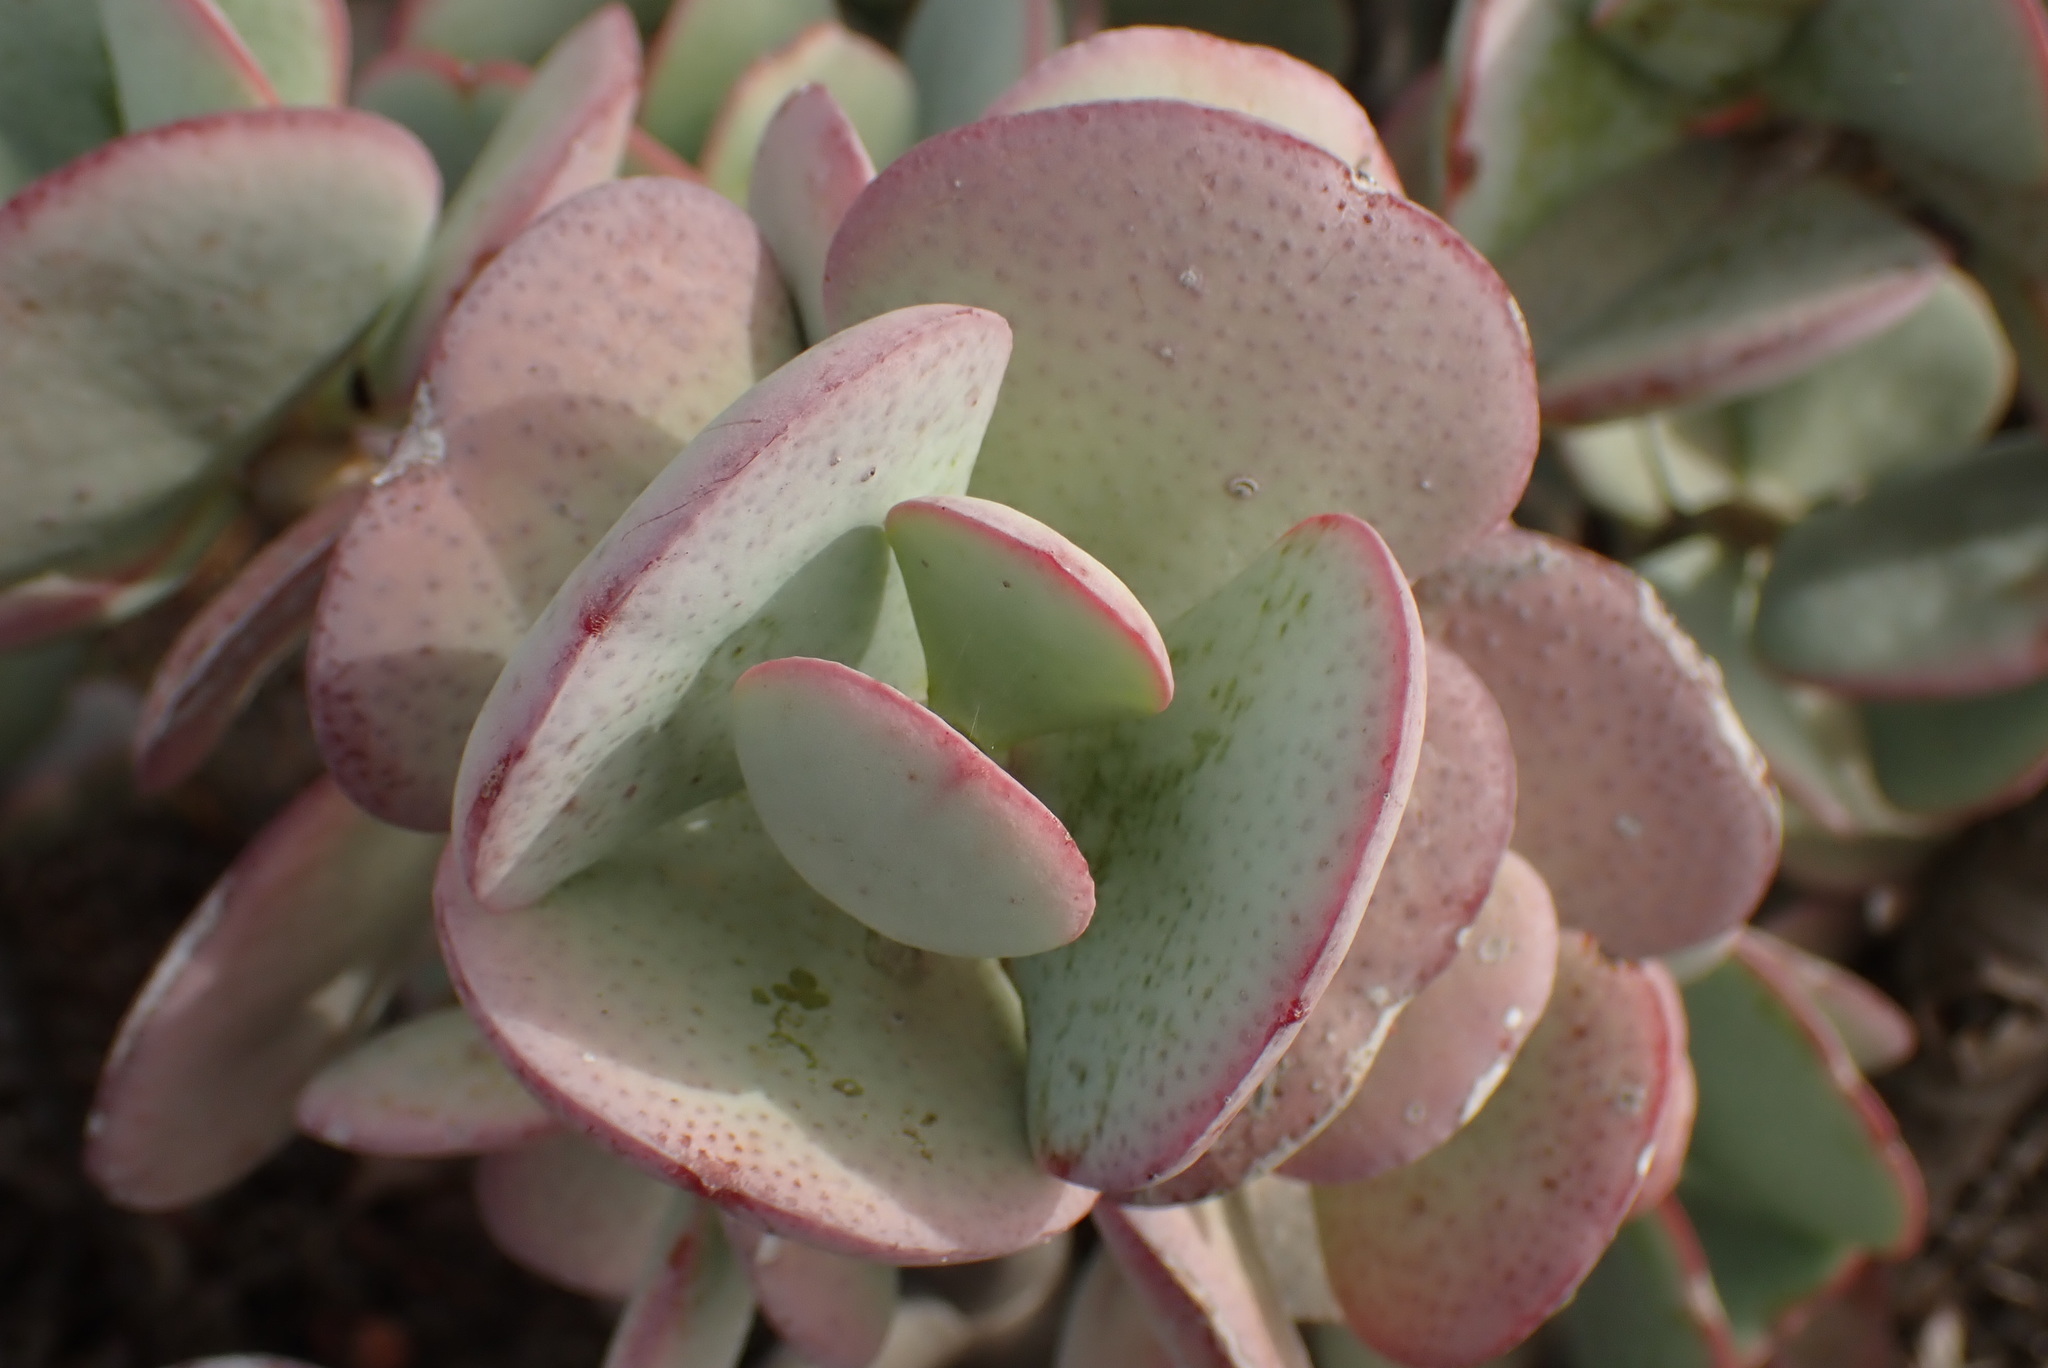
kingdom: Plantae
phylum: Tracheophyta
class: Magnoliopsida
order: Saxifragales
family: Crassulaceae
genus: Crassula
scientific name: Crassula arborescens
